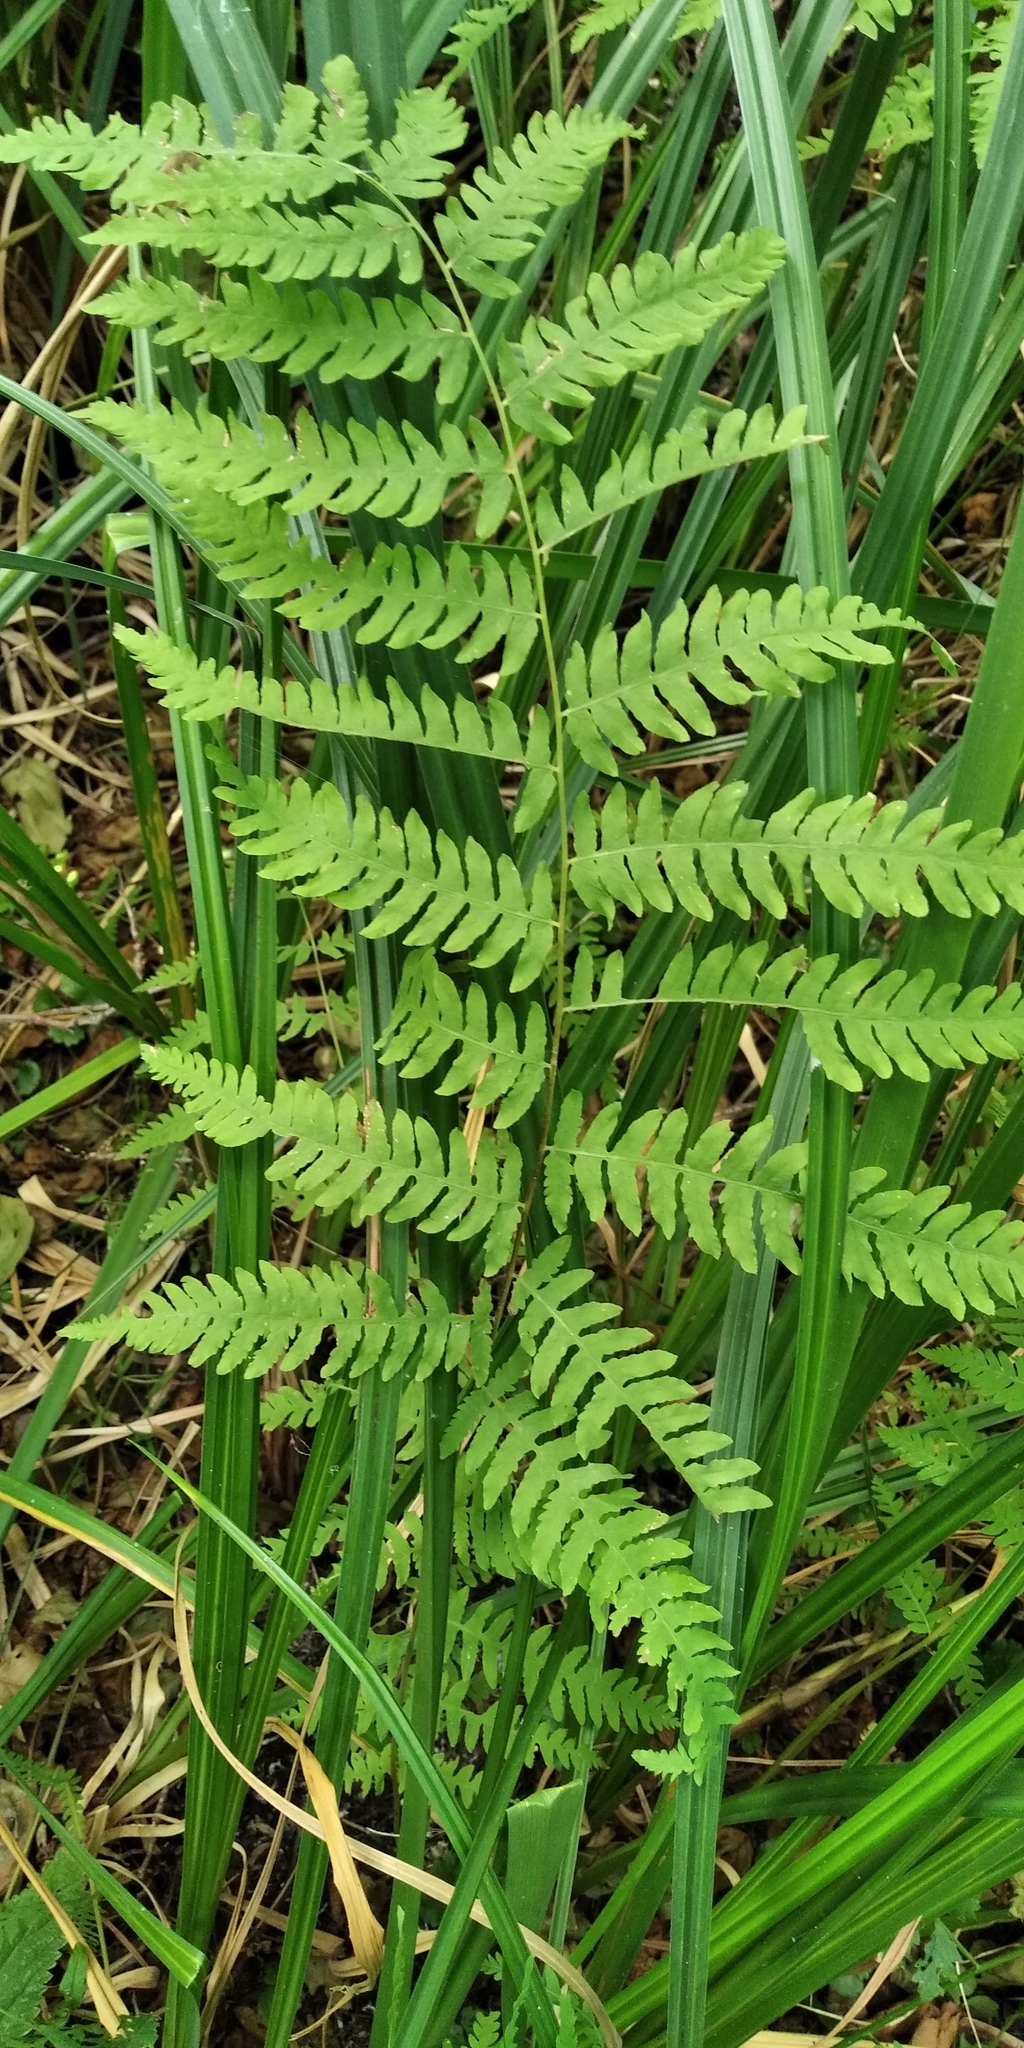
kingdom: Plantae
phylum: Tracheophyta
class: Polypodiopsida
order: Polypodiales
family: Thelypteridaceae
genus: Thelypteris
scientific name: Thelypteris palustris
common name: Marsh fern
